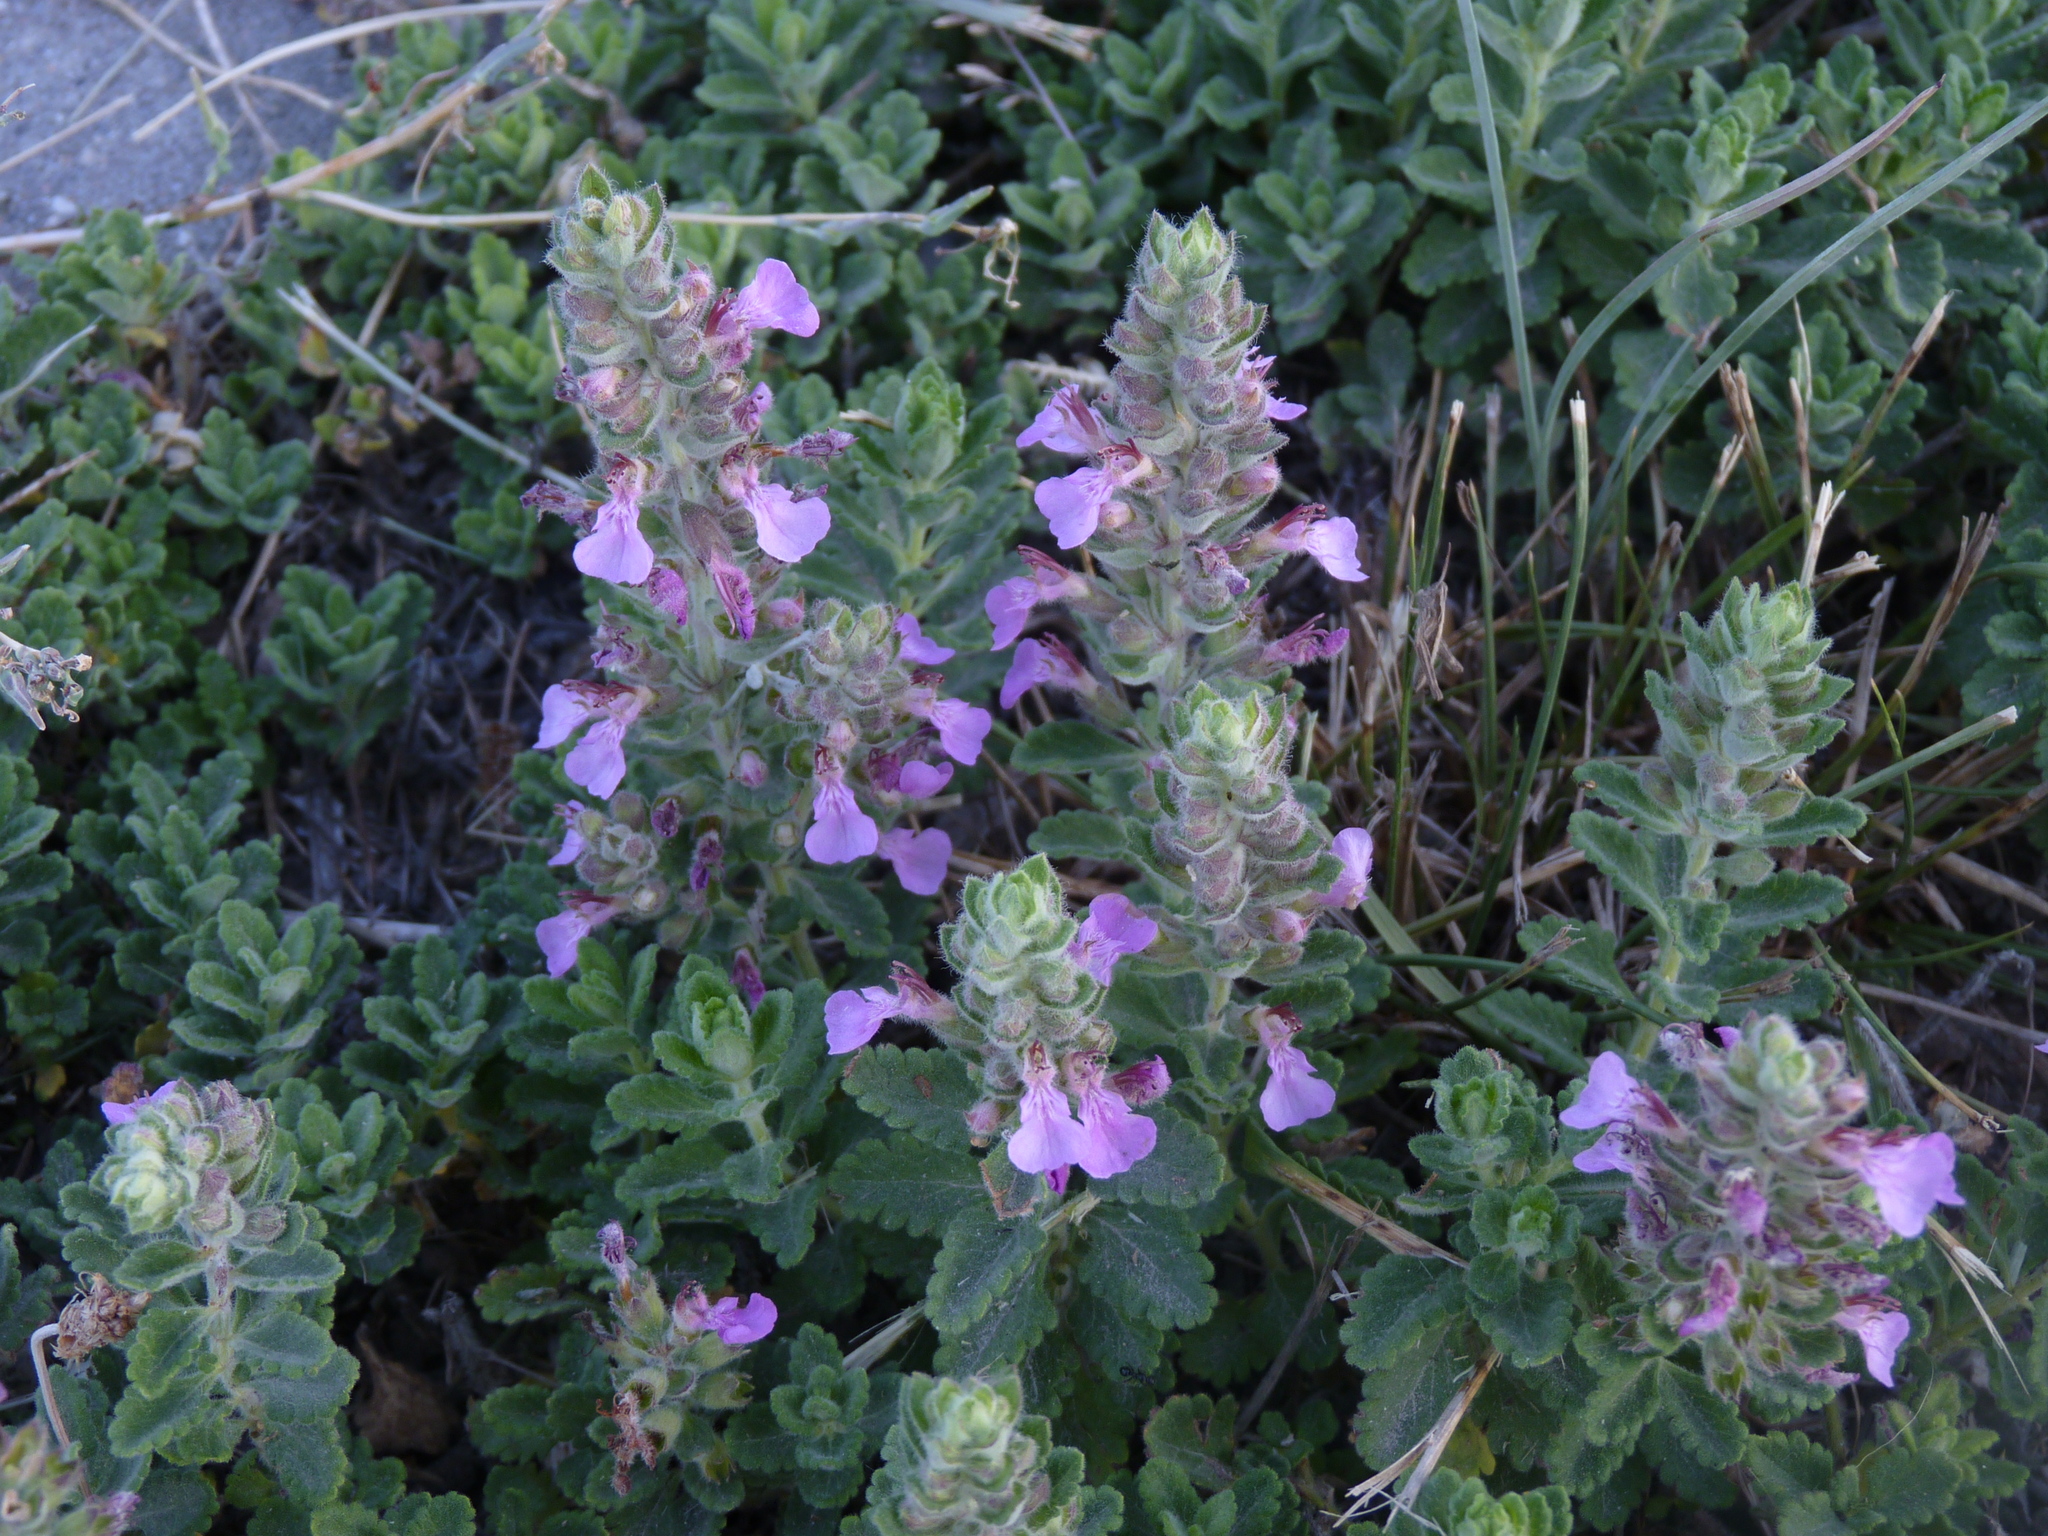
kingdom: Plantae
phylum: Tracheophyta
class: Magnoliopsida
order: Lamiales
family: Lamiaceae
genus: Teucrium
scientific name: Teucrium chamaedrys
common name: Wall germander
